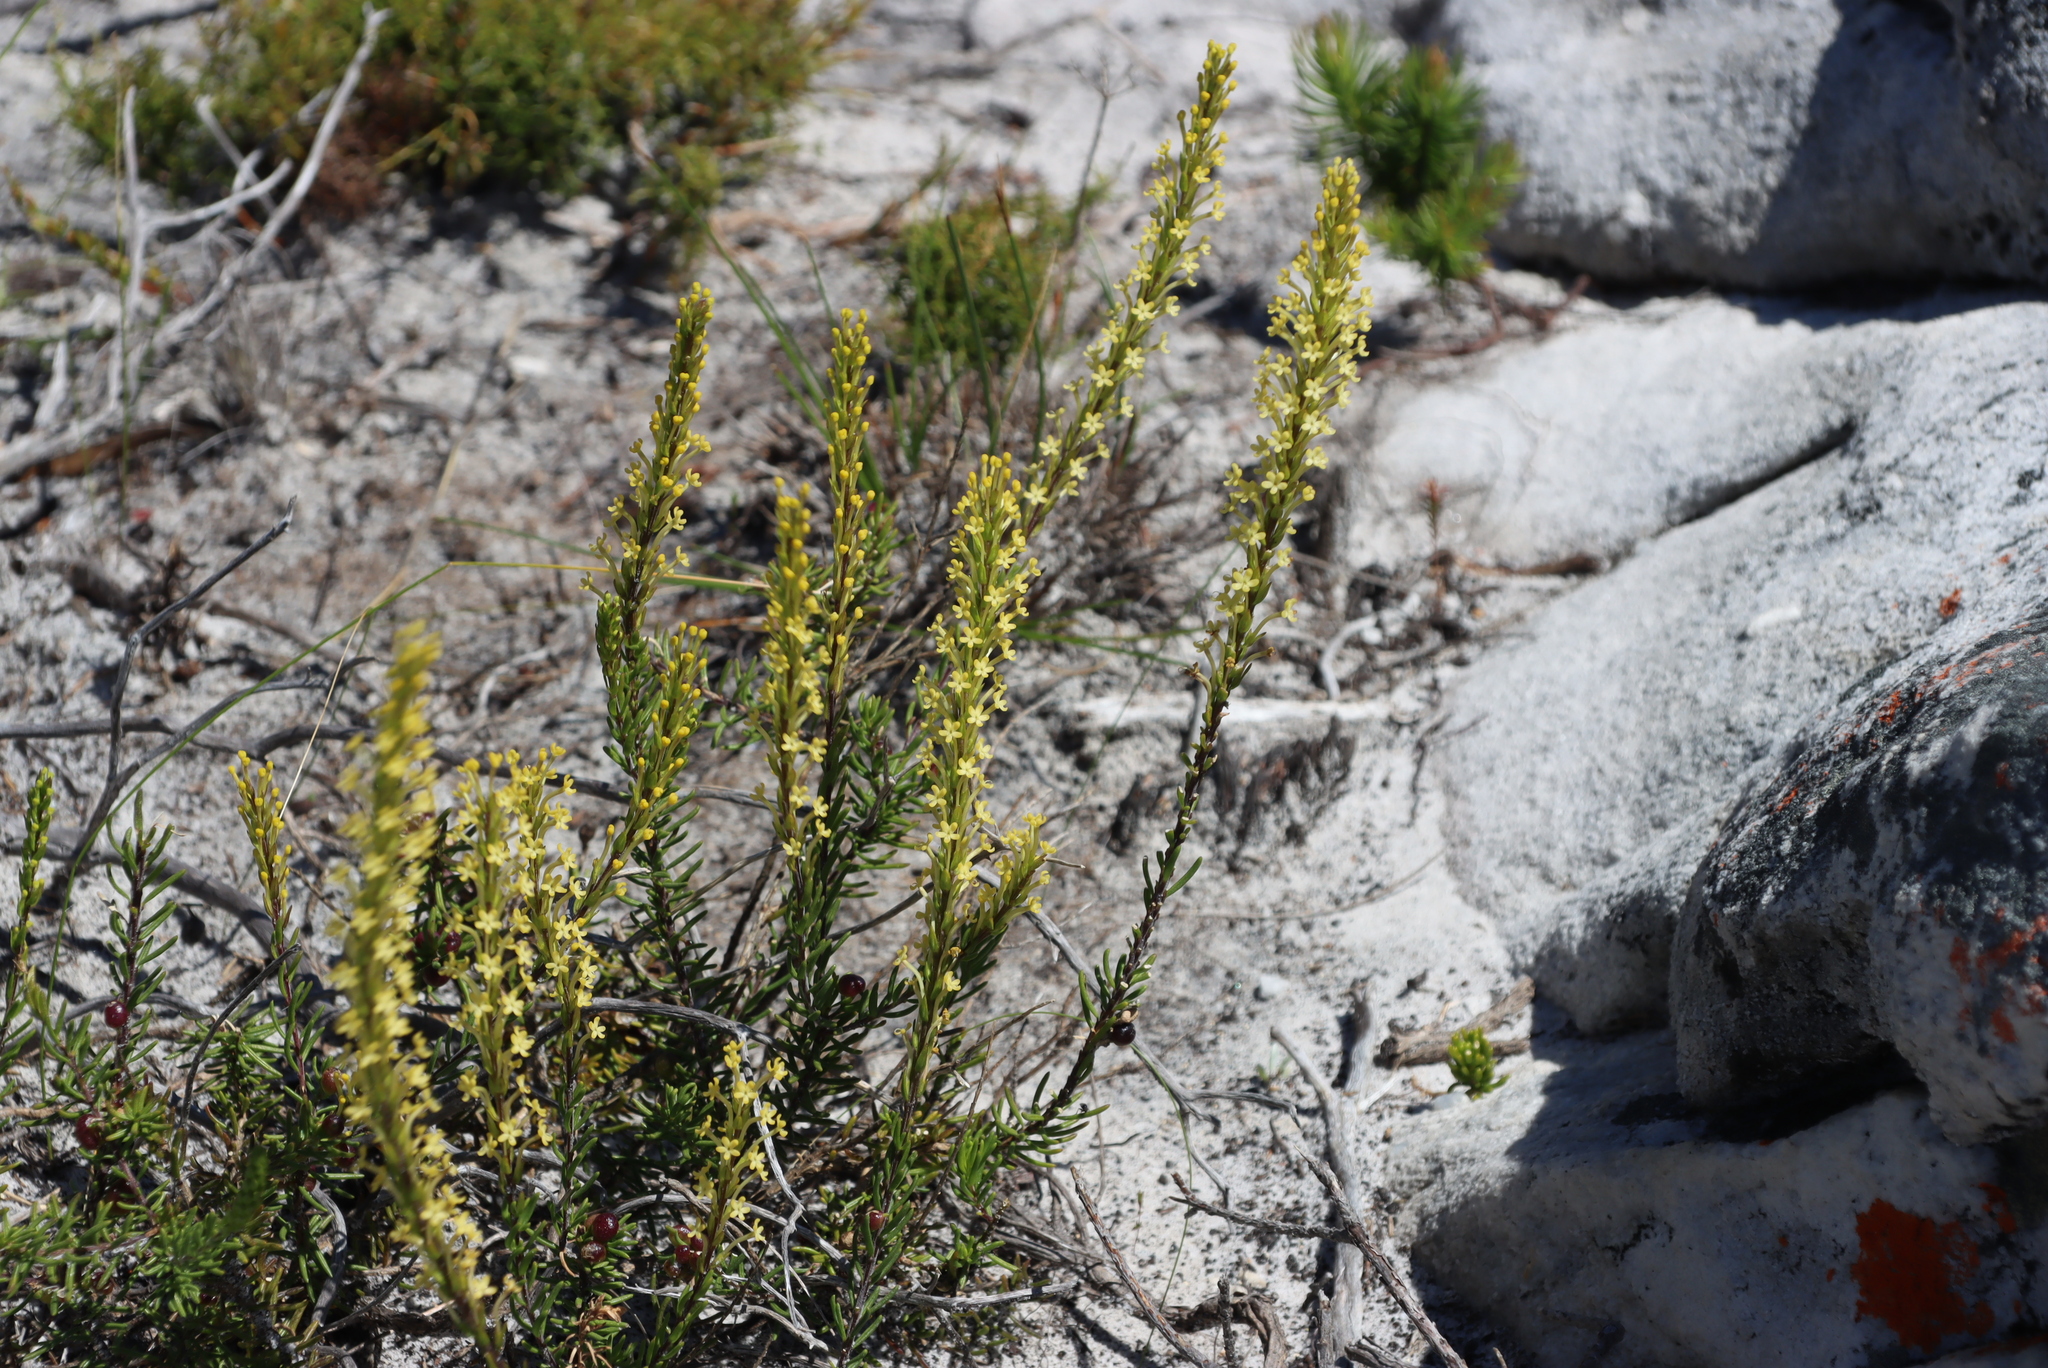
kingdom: Plantae
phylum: Tracheophyta
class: Magnoliopsida
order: Lamiales
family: Scrophulariaceae
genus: Microdon
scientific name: Microdon dubius
